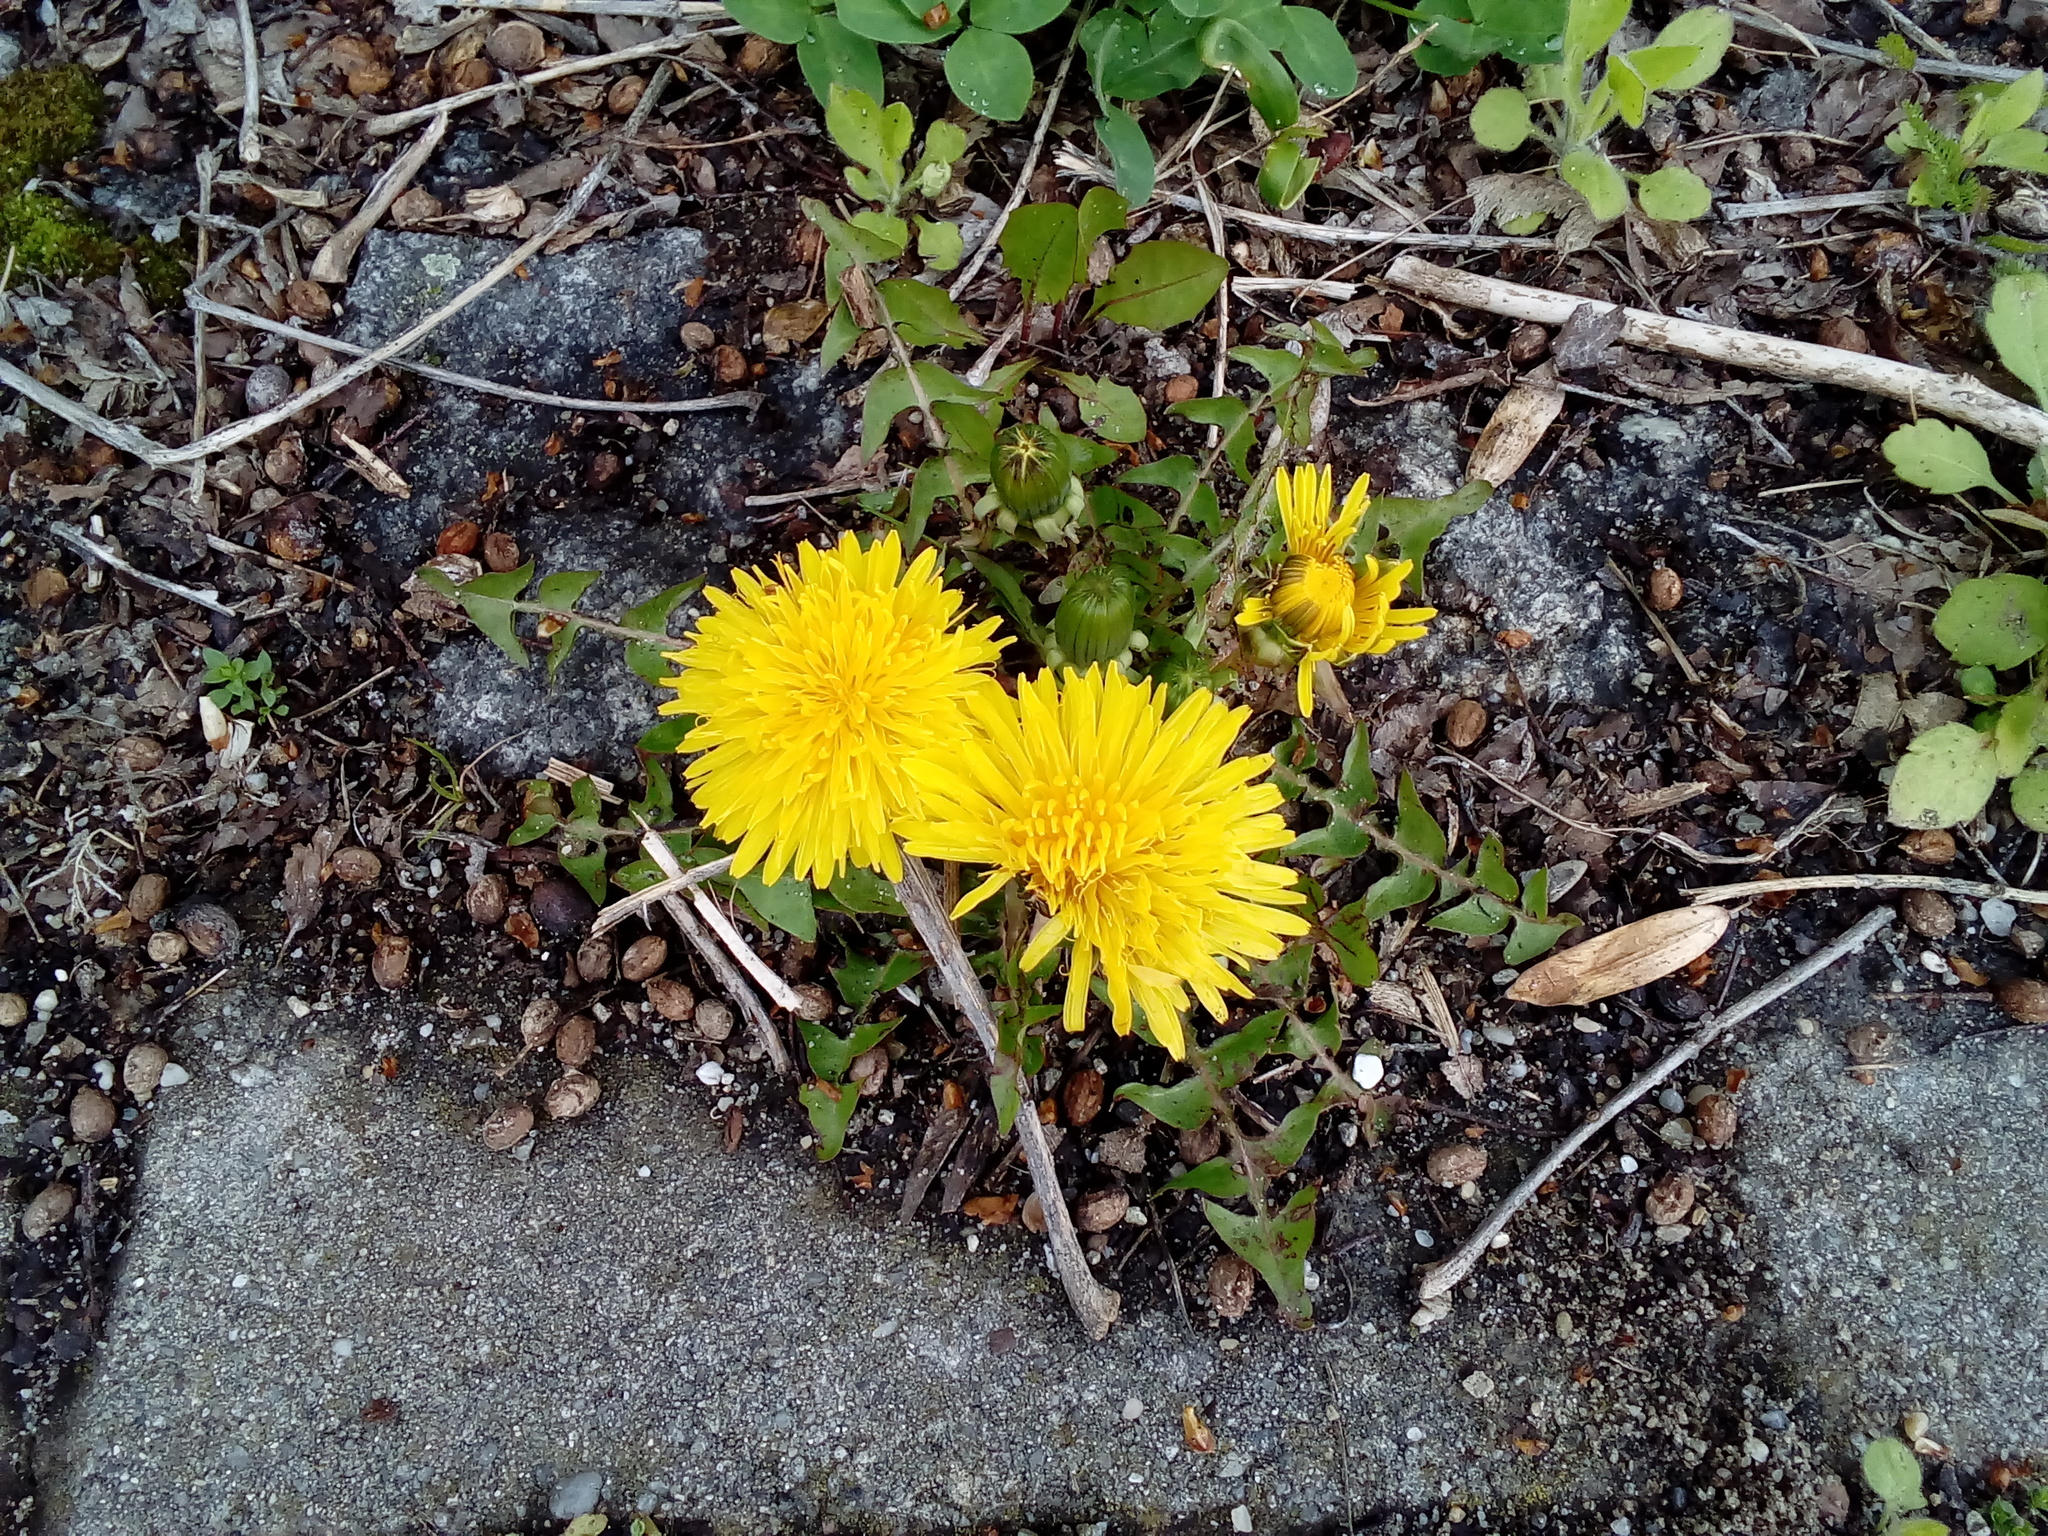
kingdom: Plantae
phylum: Tracheophyta
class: Magnoliopsida
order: Asterales
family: Asteraceae
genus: Taraxacum
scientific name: Taraxacum
